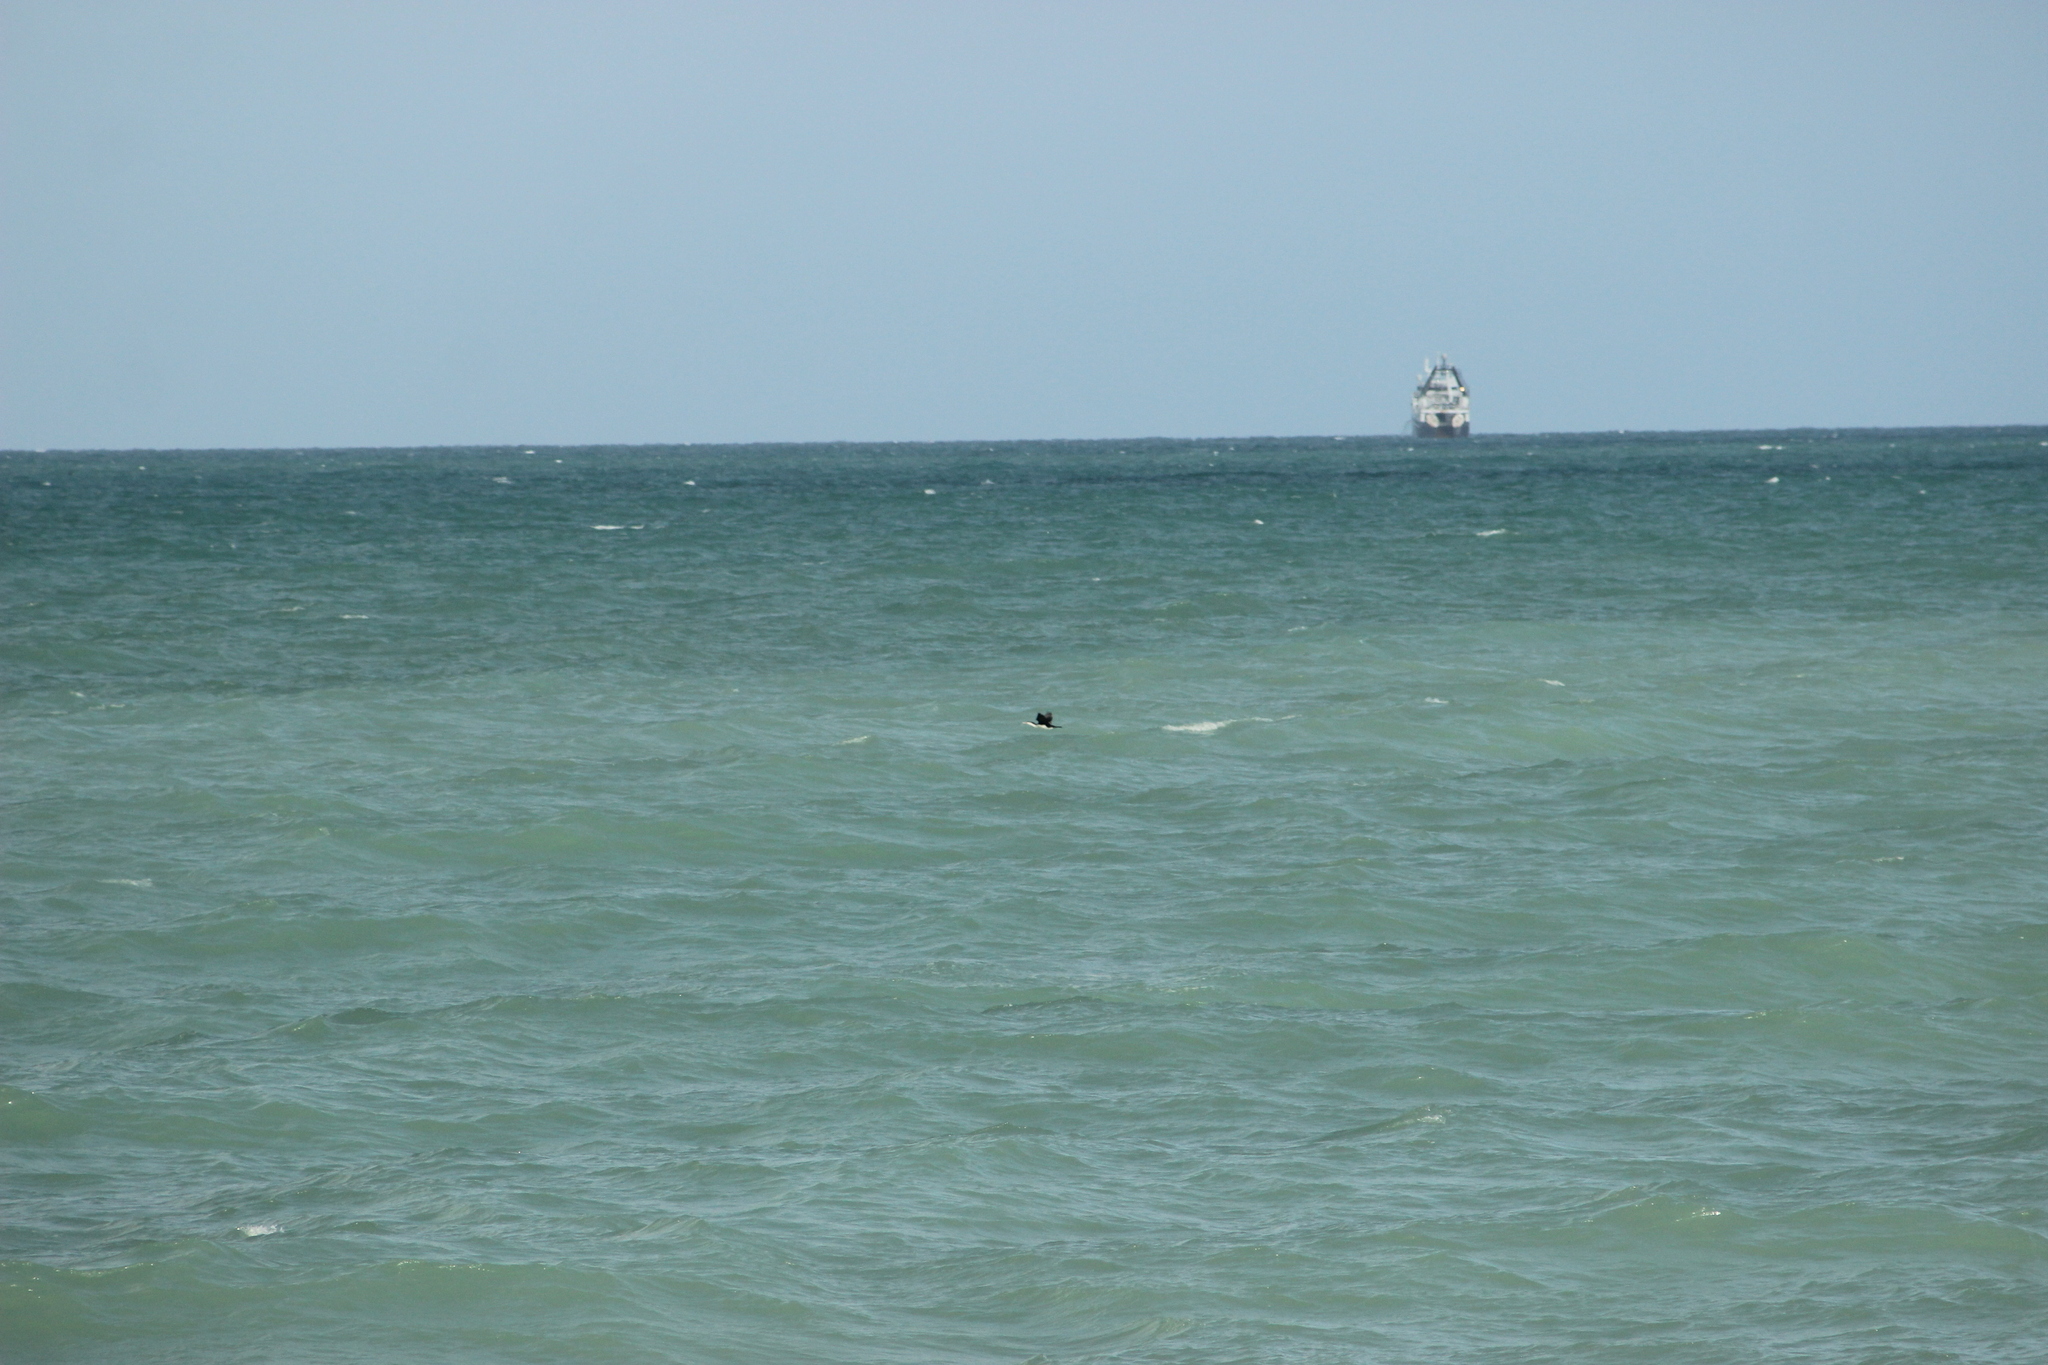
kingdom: Animalia
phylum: Chordata
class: Aves
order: Suliformes
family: Phalacrocoracidae
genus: Phalacrocorax
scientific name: Phalacrocorax varius
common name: Pied cormorant
